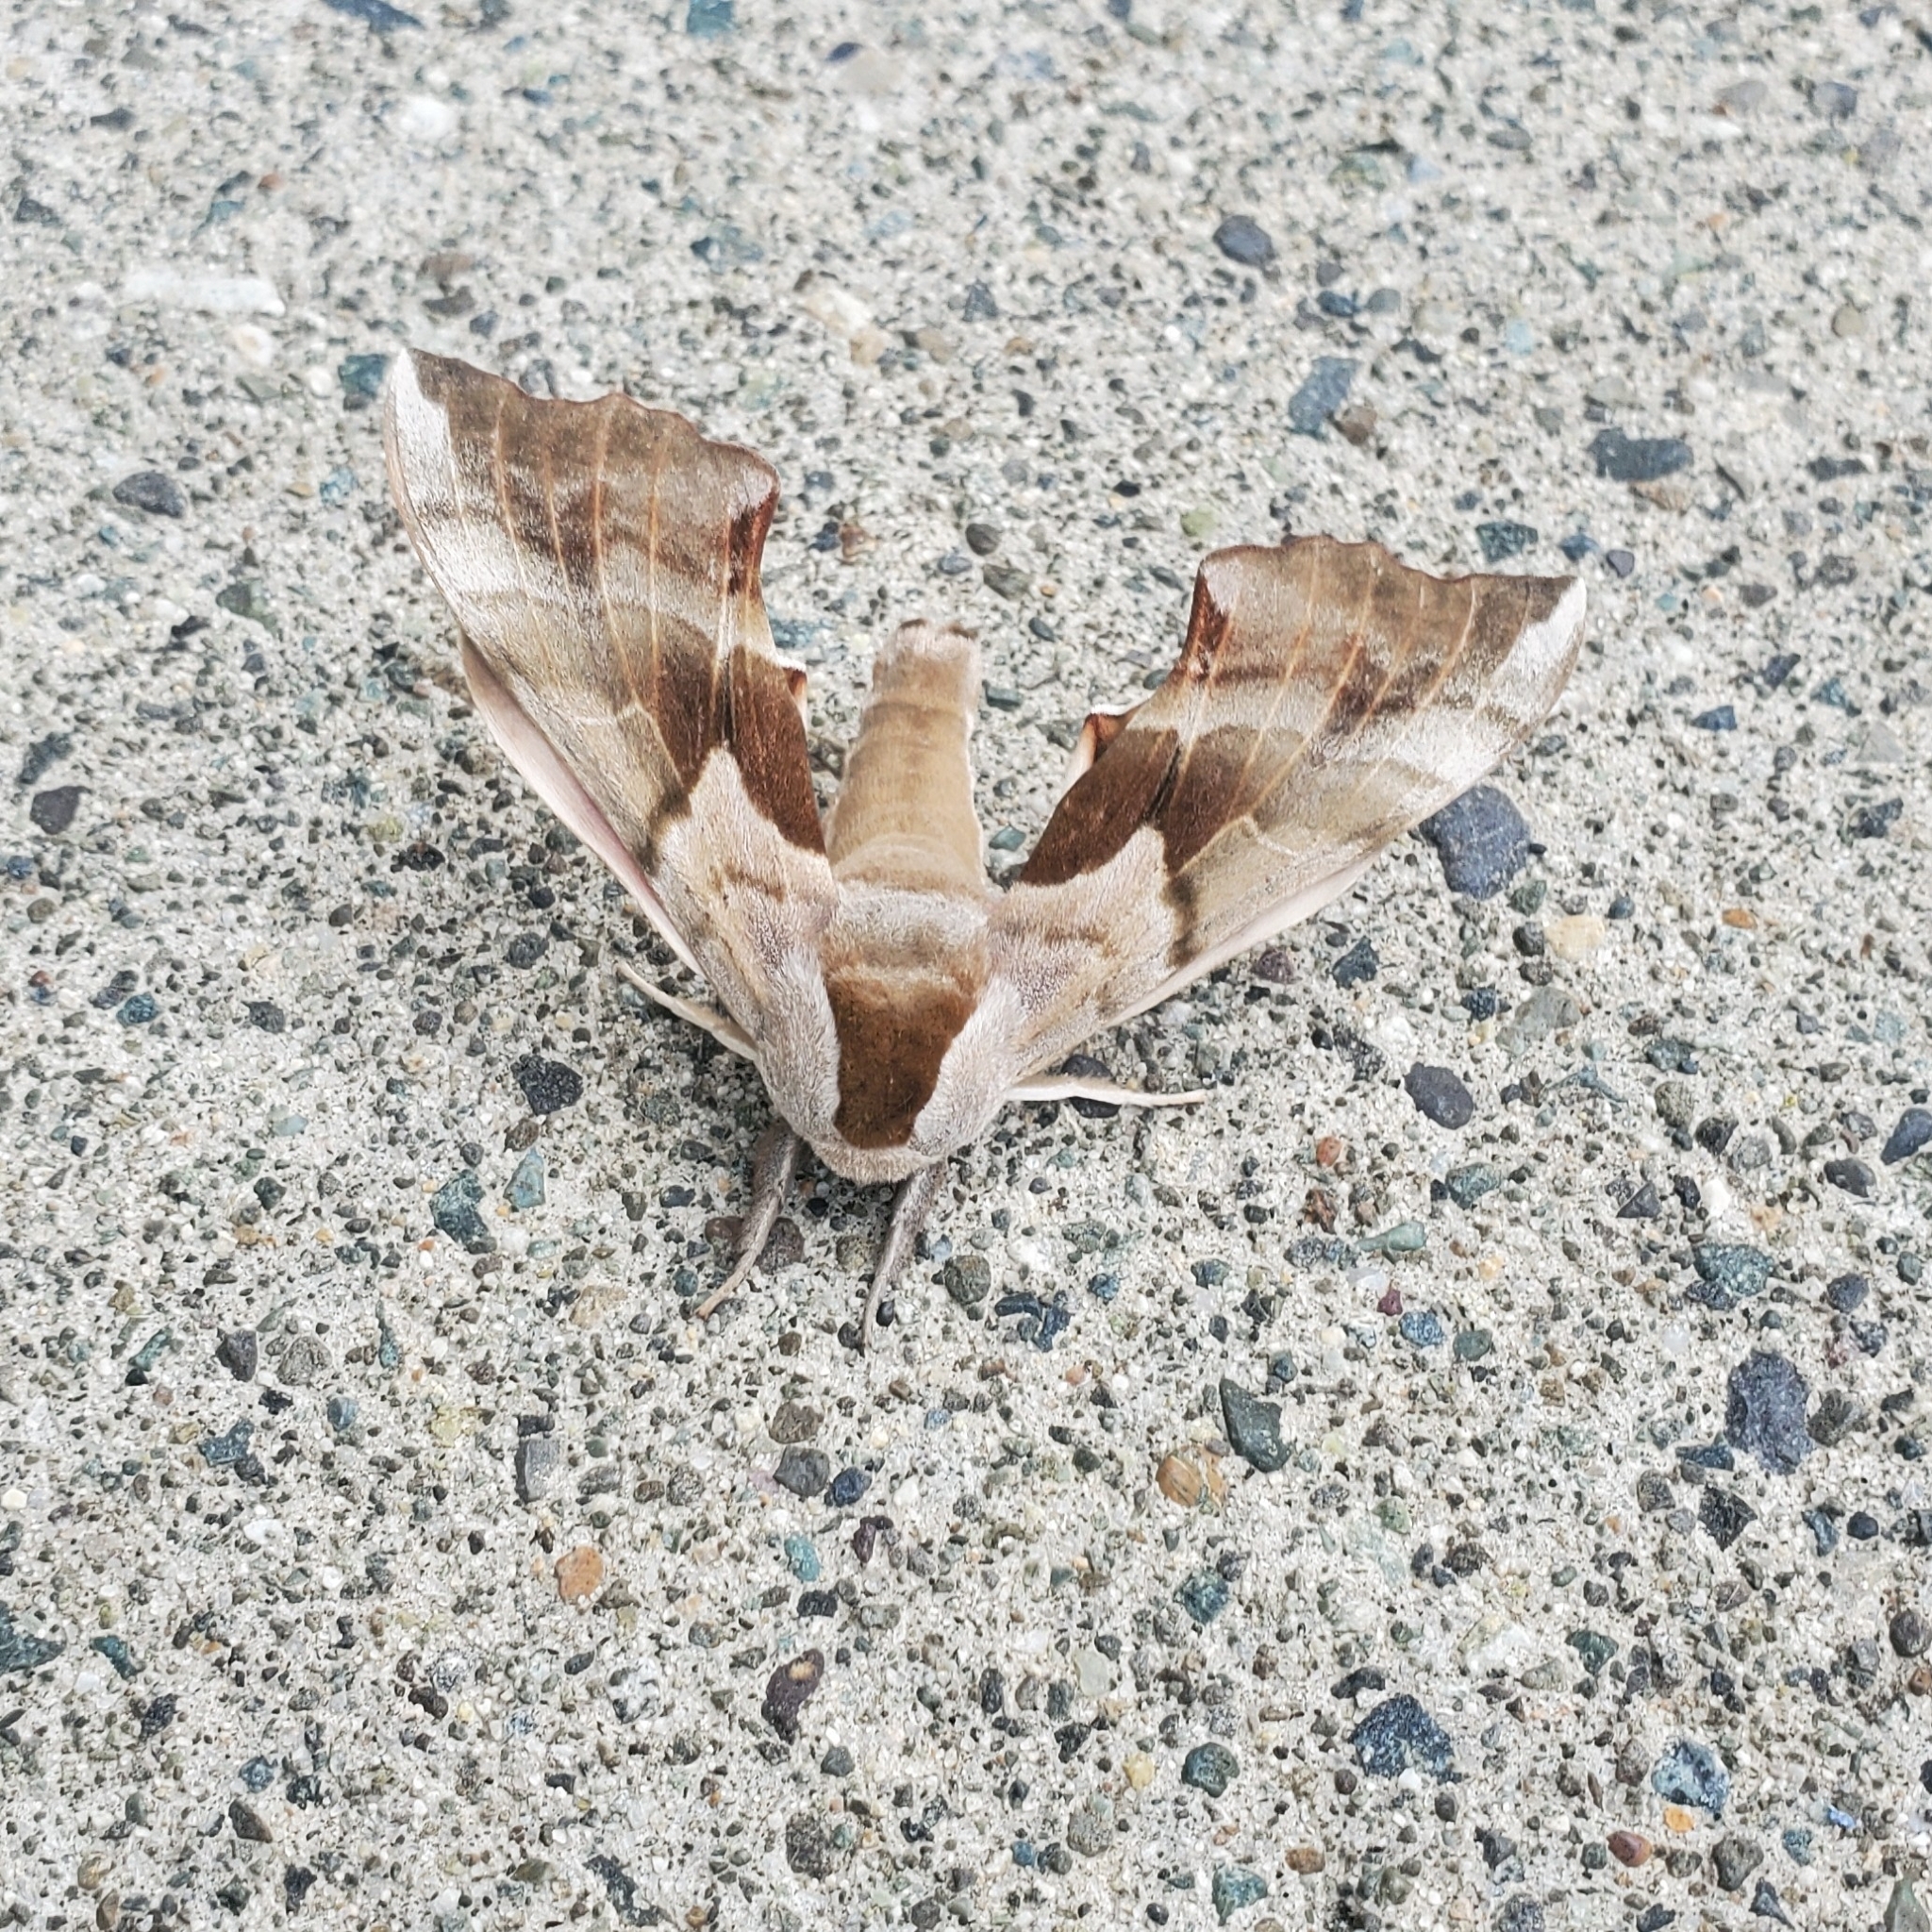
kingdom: Animalia
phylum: Arthropoda
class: Insecta
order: Lepidoptera
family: Sphingidae
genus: Smerinthus
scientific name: Smerinthus cerisyi
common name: Cerisy's sphinx moth
